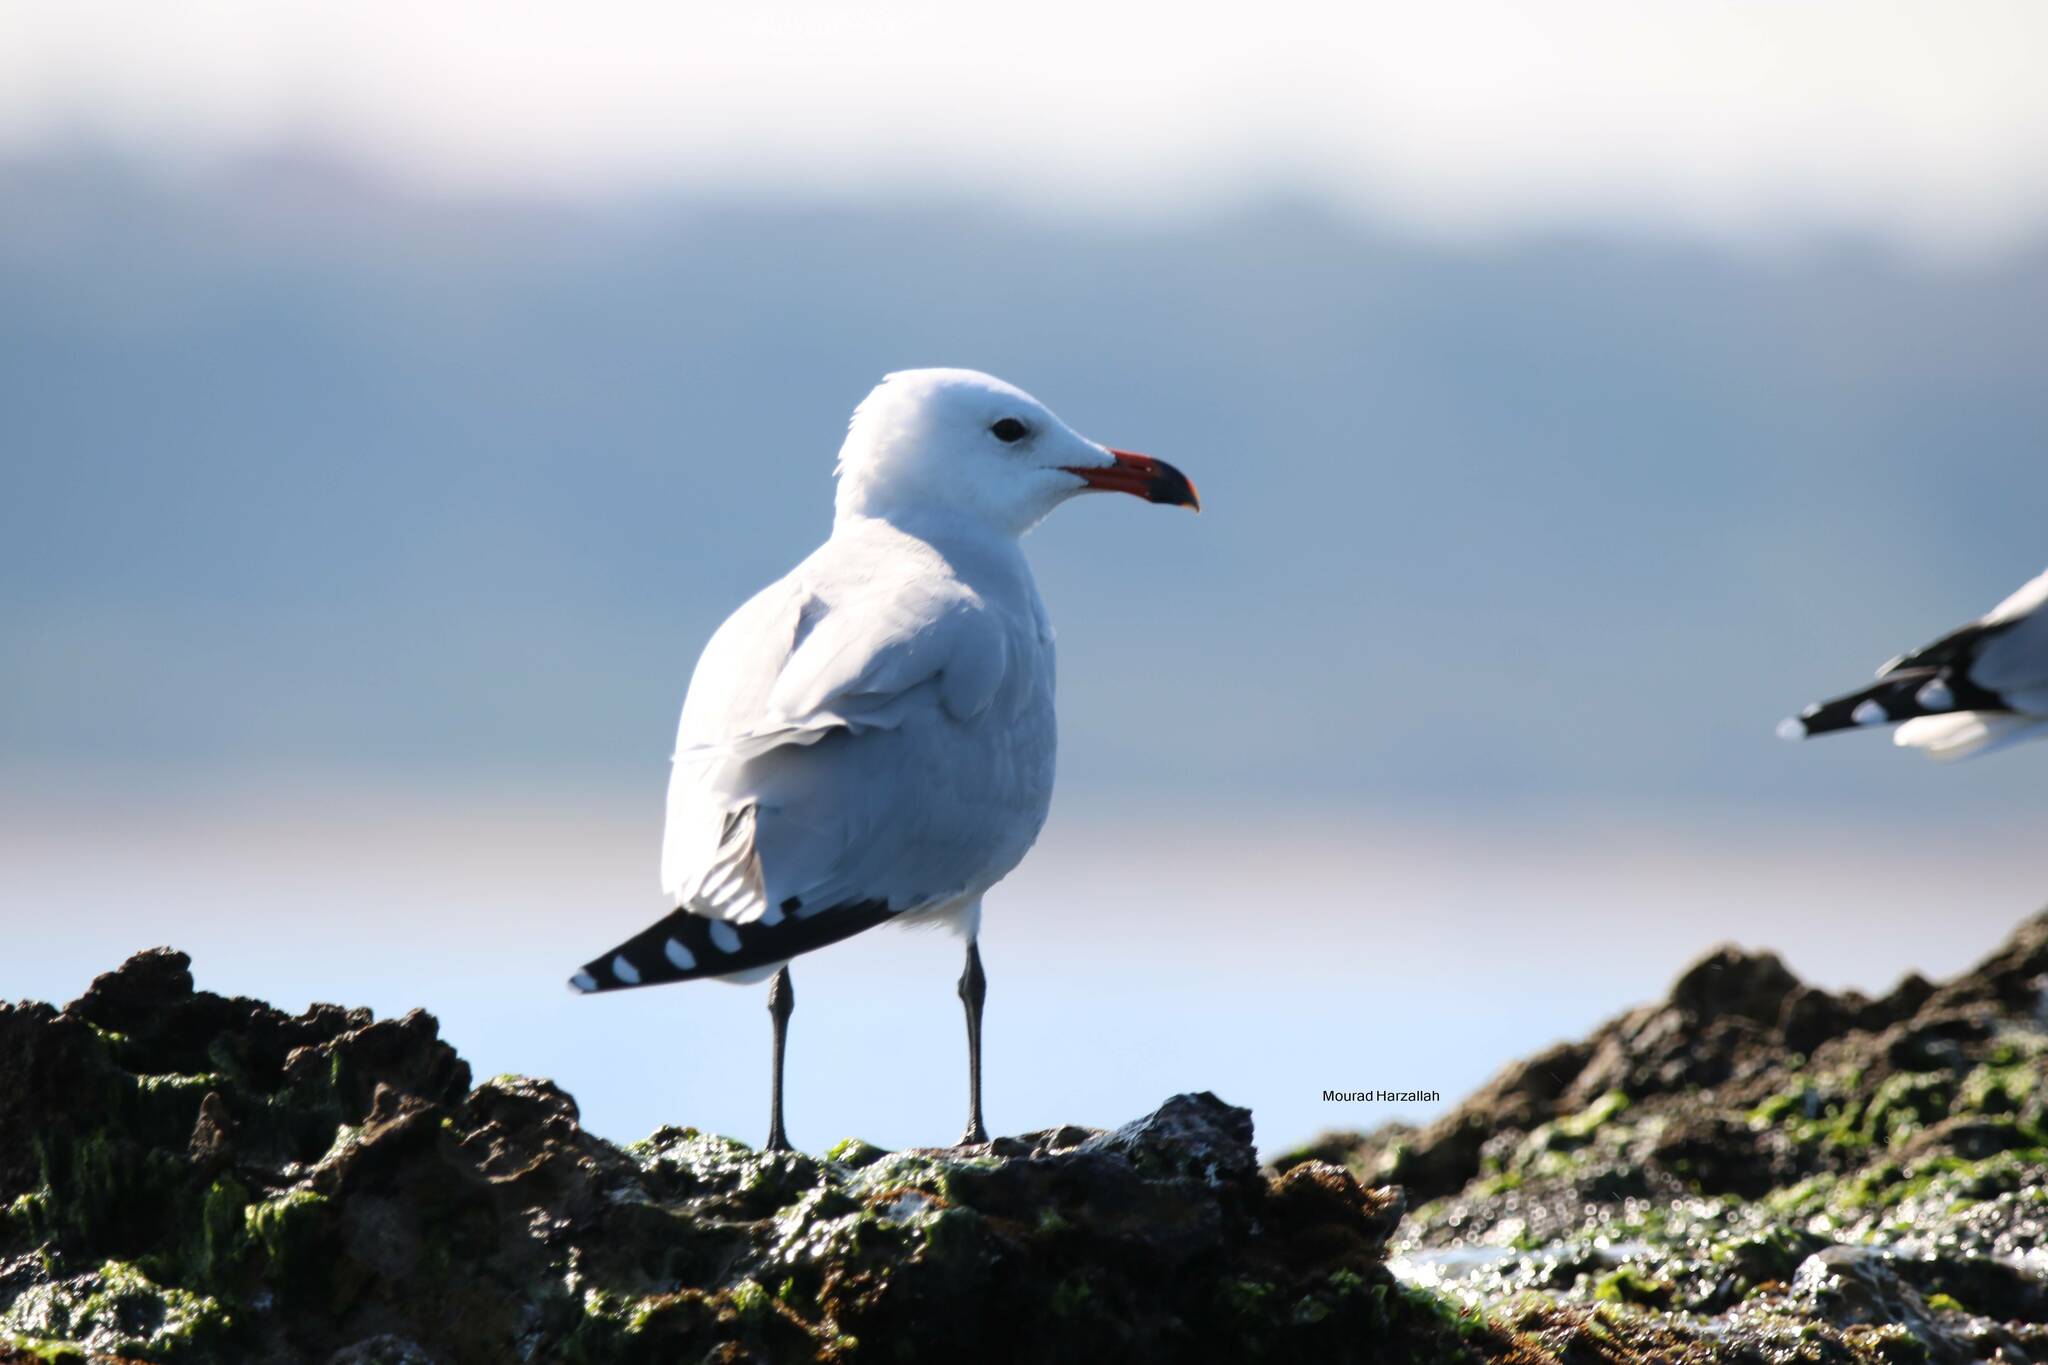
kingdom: Animalia
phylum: Chordata
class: Aves
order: Charadriiformes
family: Laridae
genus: Ichthyaetus
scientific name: Ichthyaetus audouinii
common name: Audouin's gull
